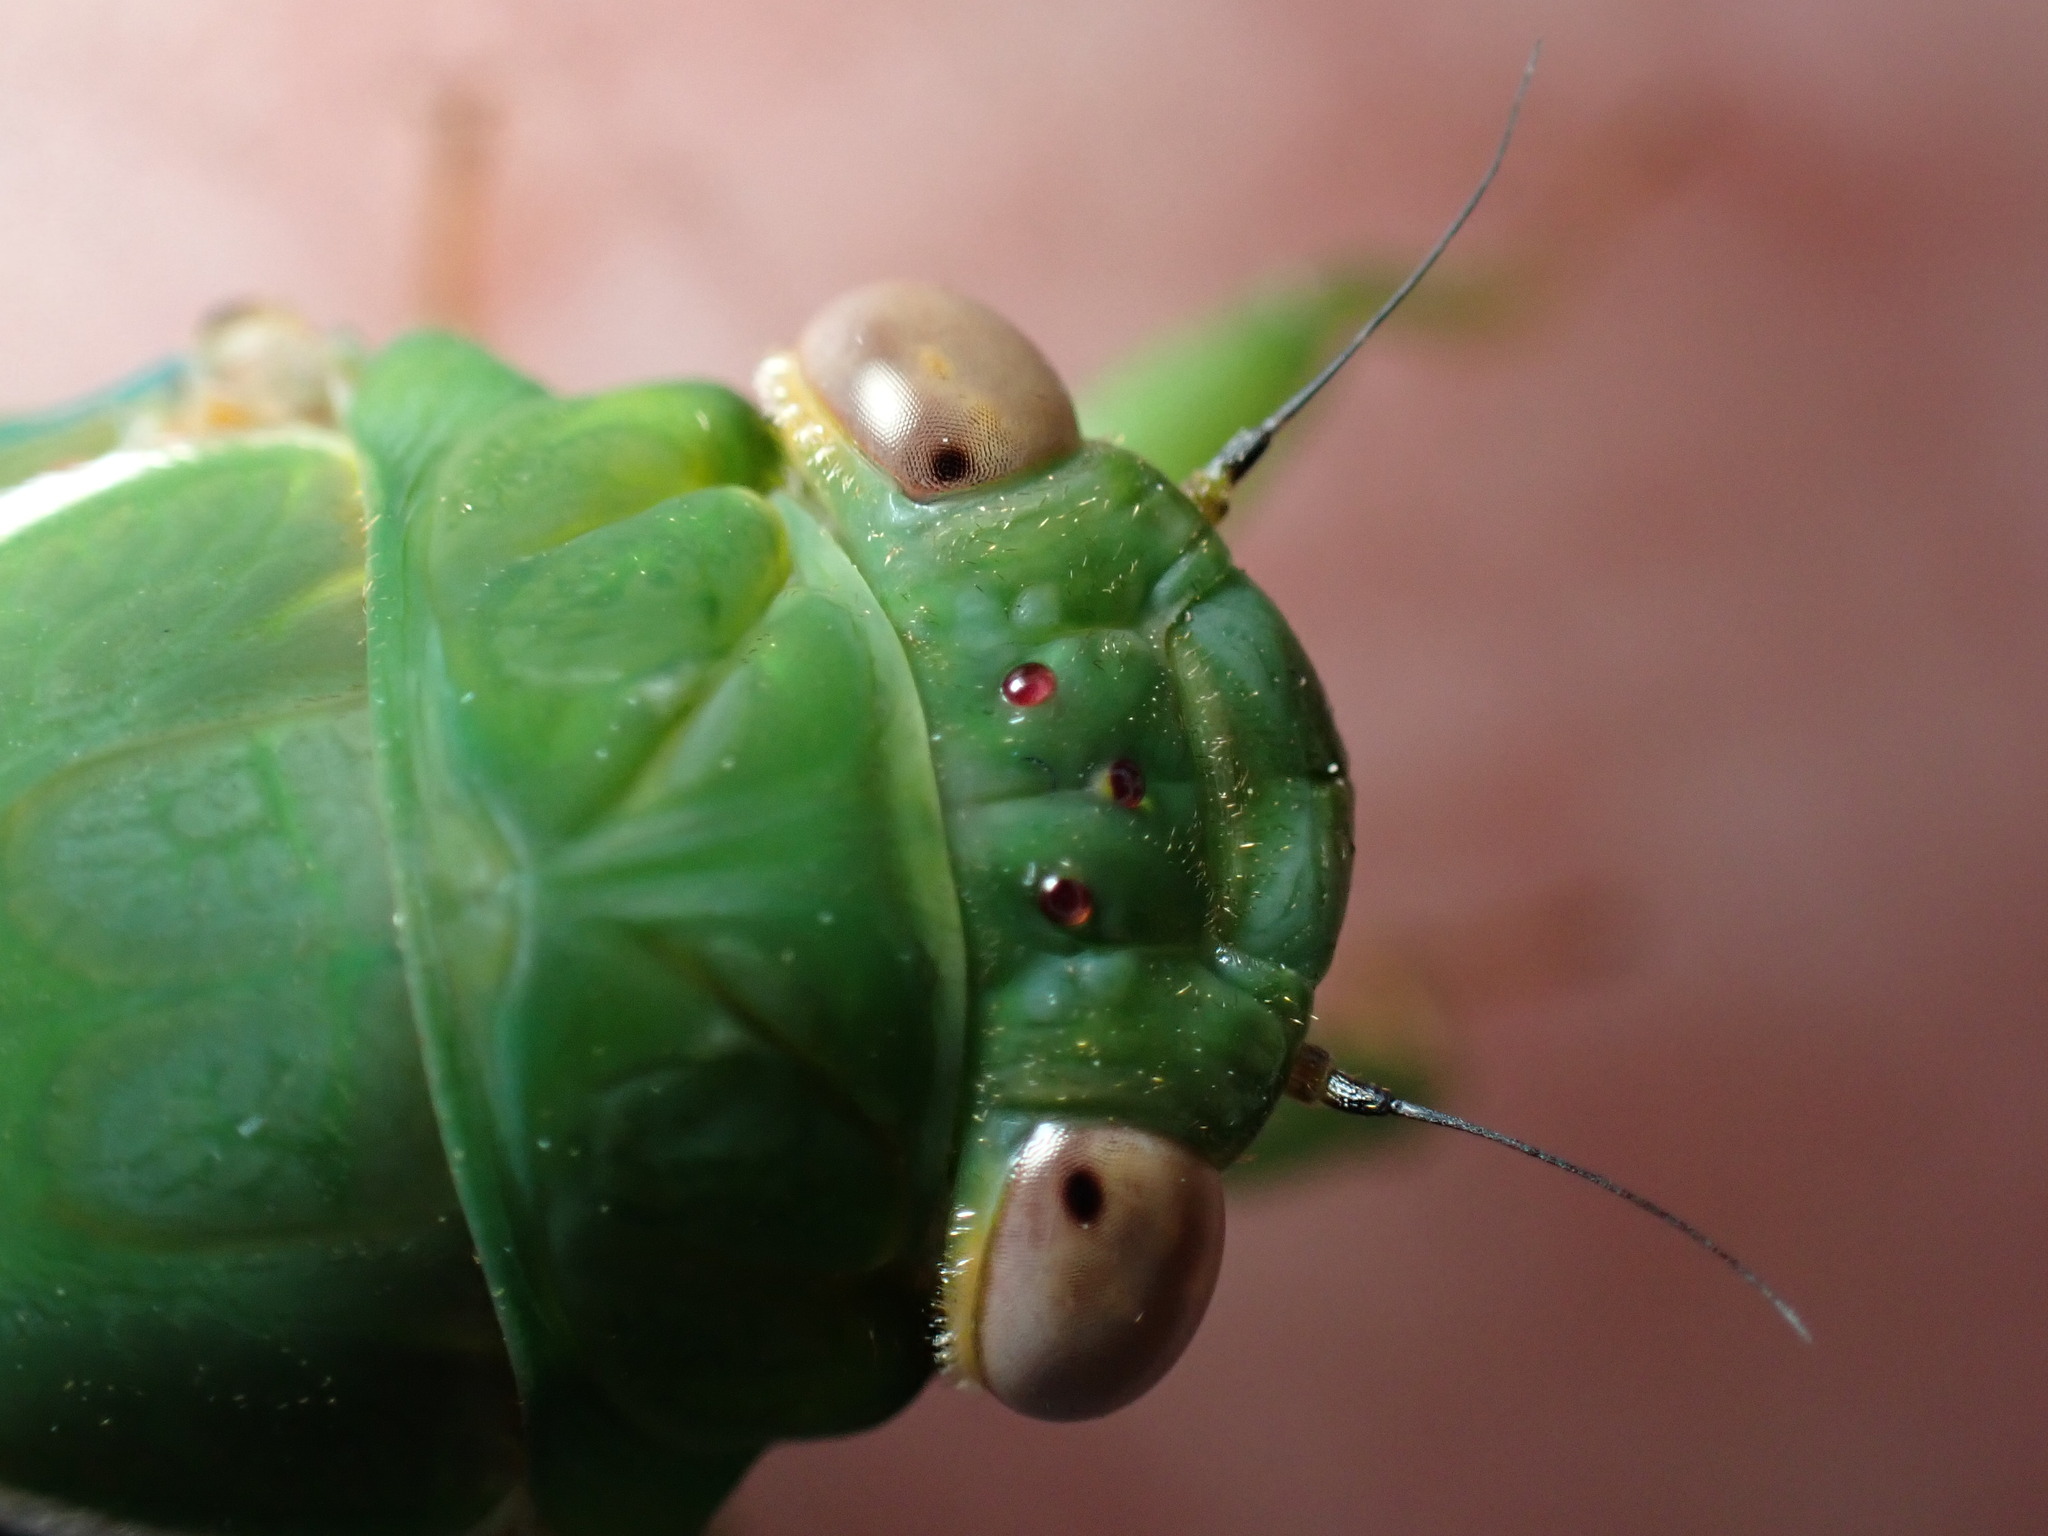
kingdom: Animalia
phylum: Arthropoda
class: Insecta
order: Hemiptera
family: Cicadidae
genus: Glaucopsaltria
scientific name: Glaucopsaltria viridis
